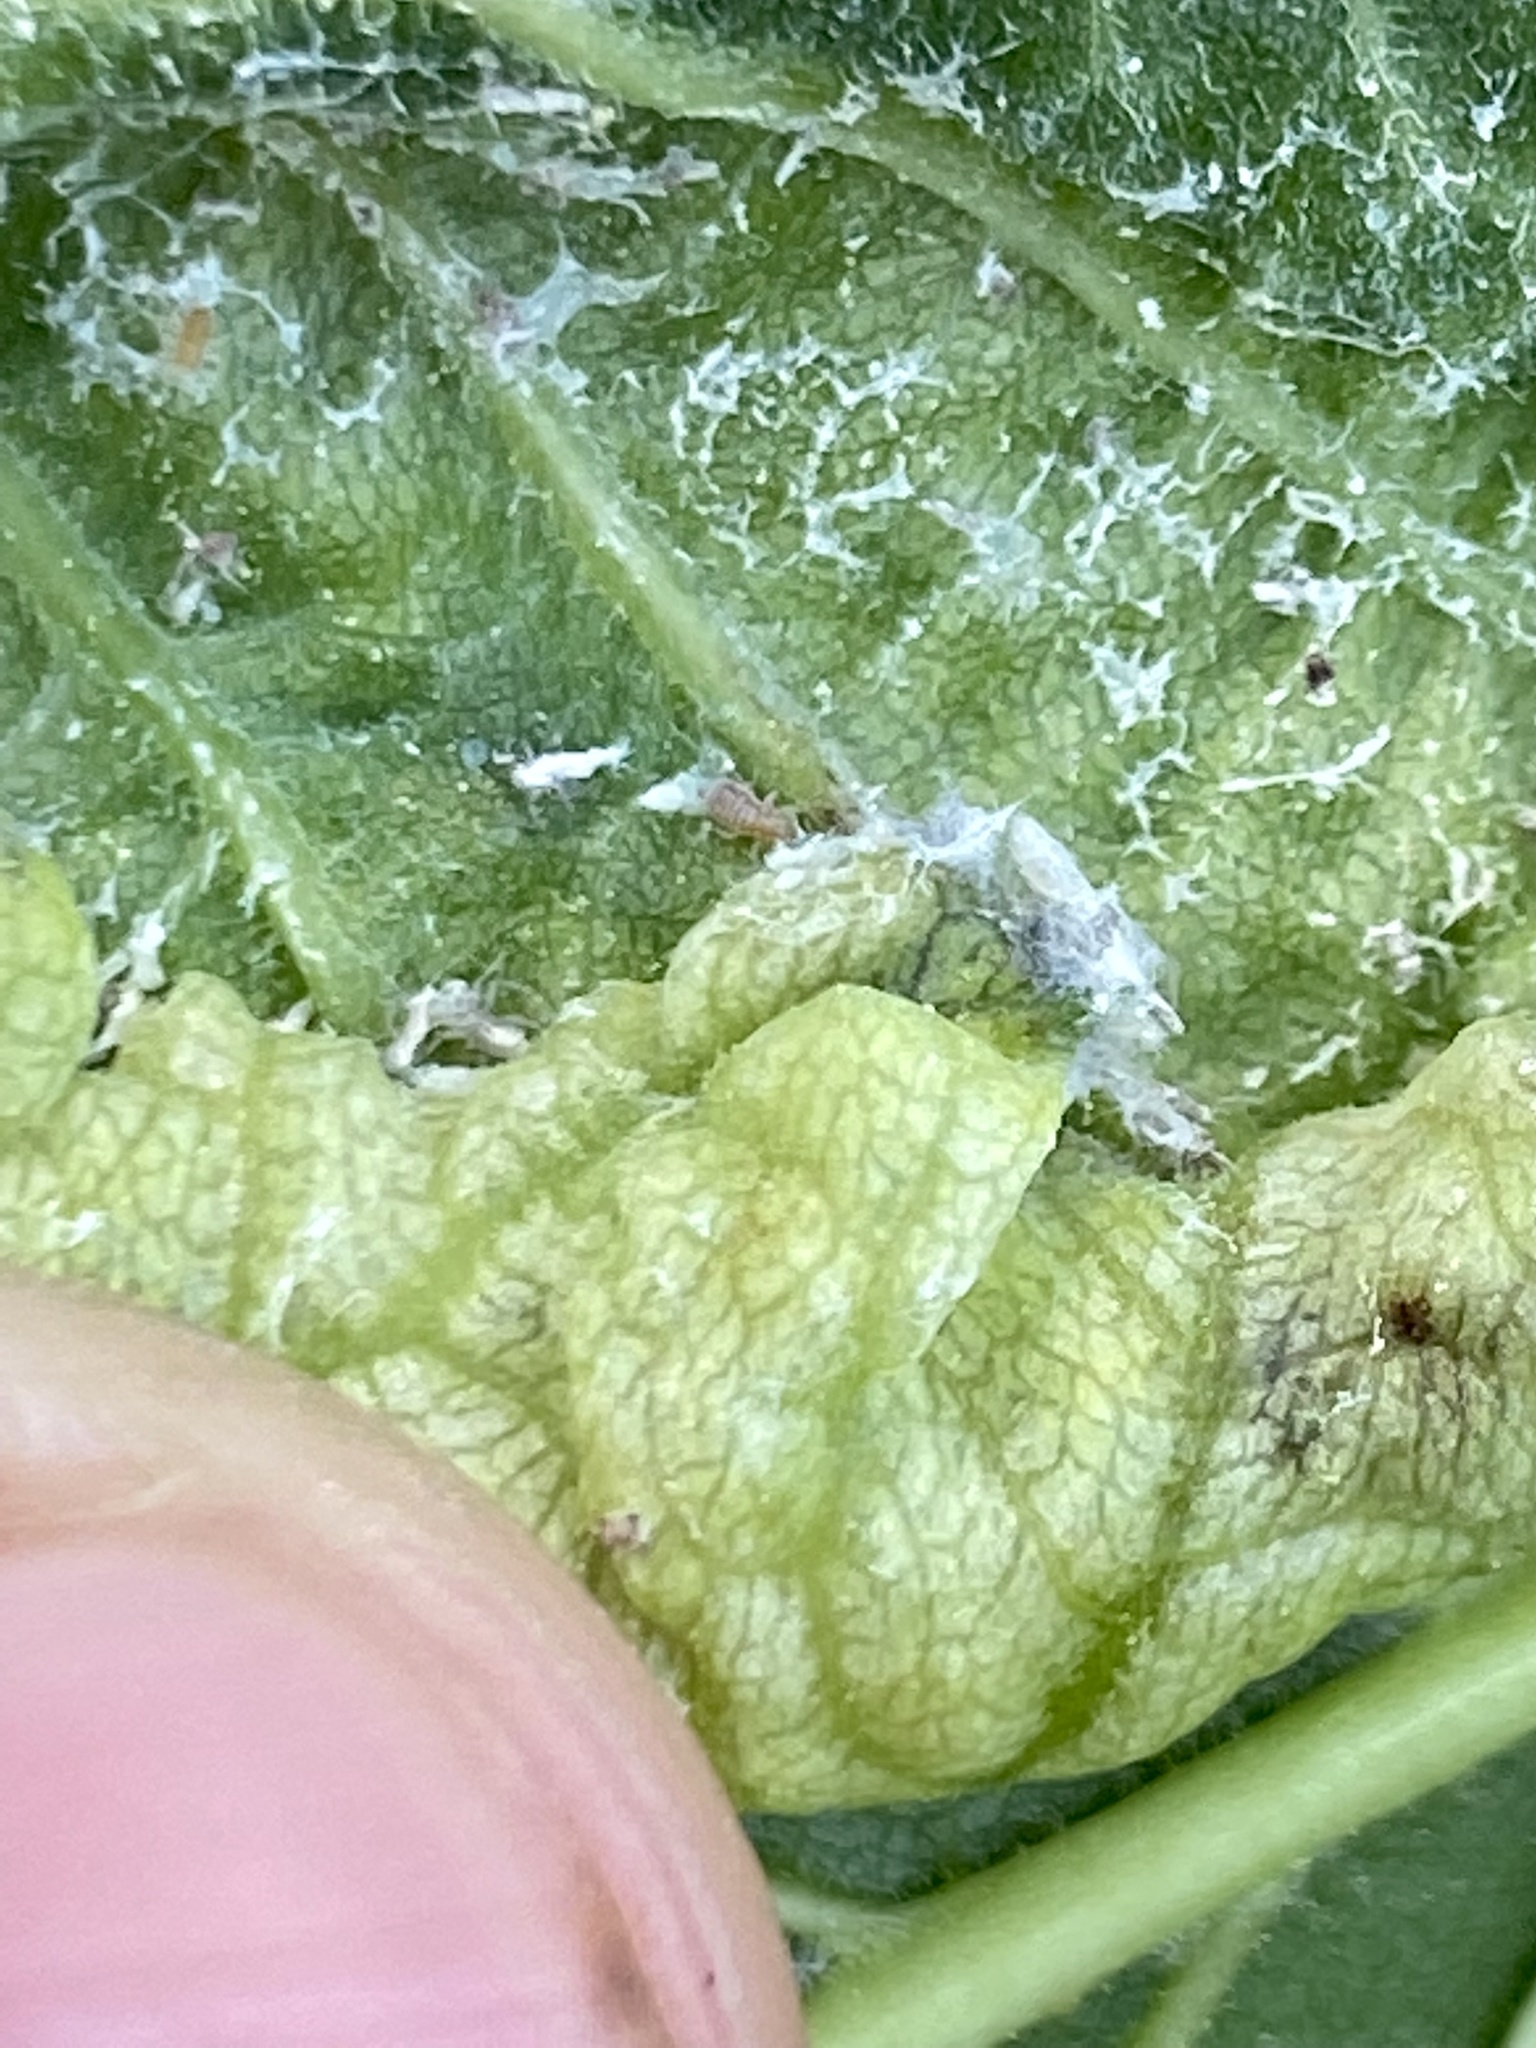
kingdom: Animalia
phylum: Arthropoda
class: Insecta
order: Hemiptera
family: Aphididae
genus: Eriosoma
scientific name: Eriosoma americanum
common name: Woolly elm aphid
